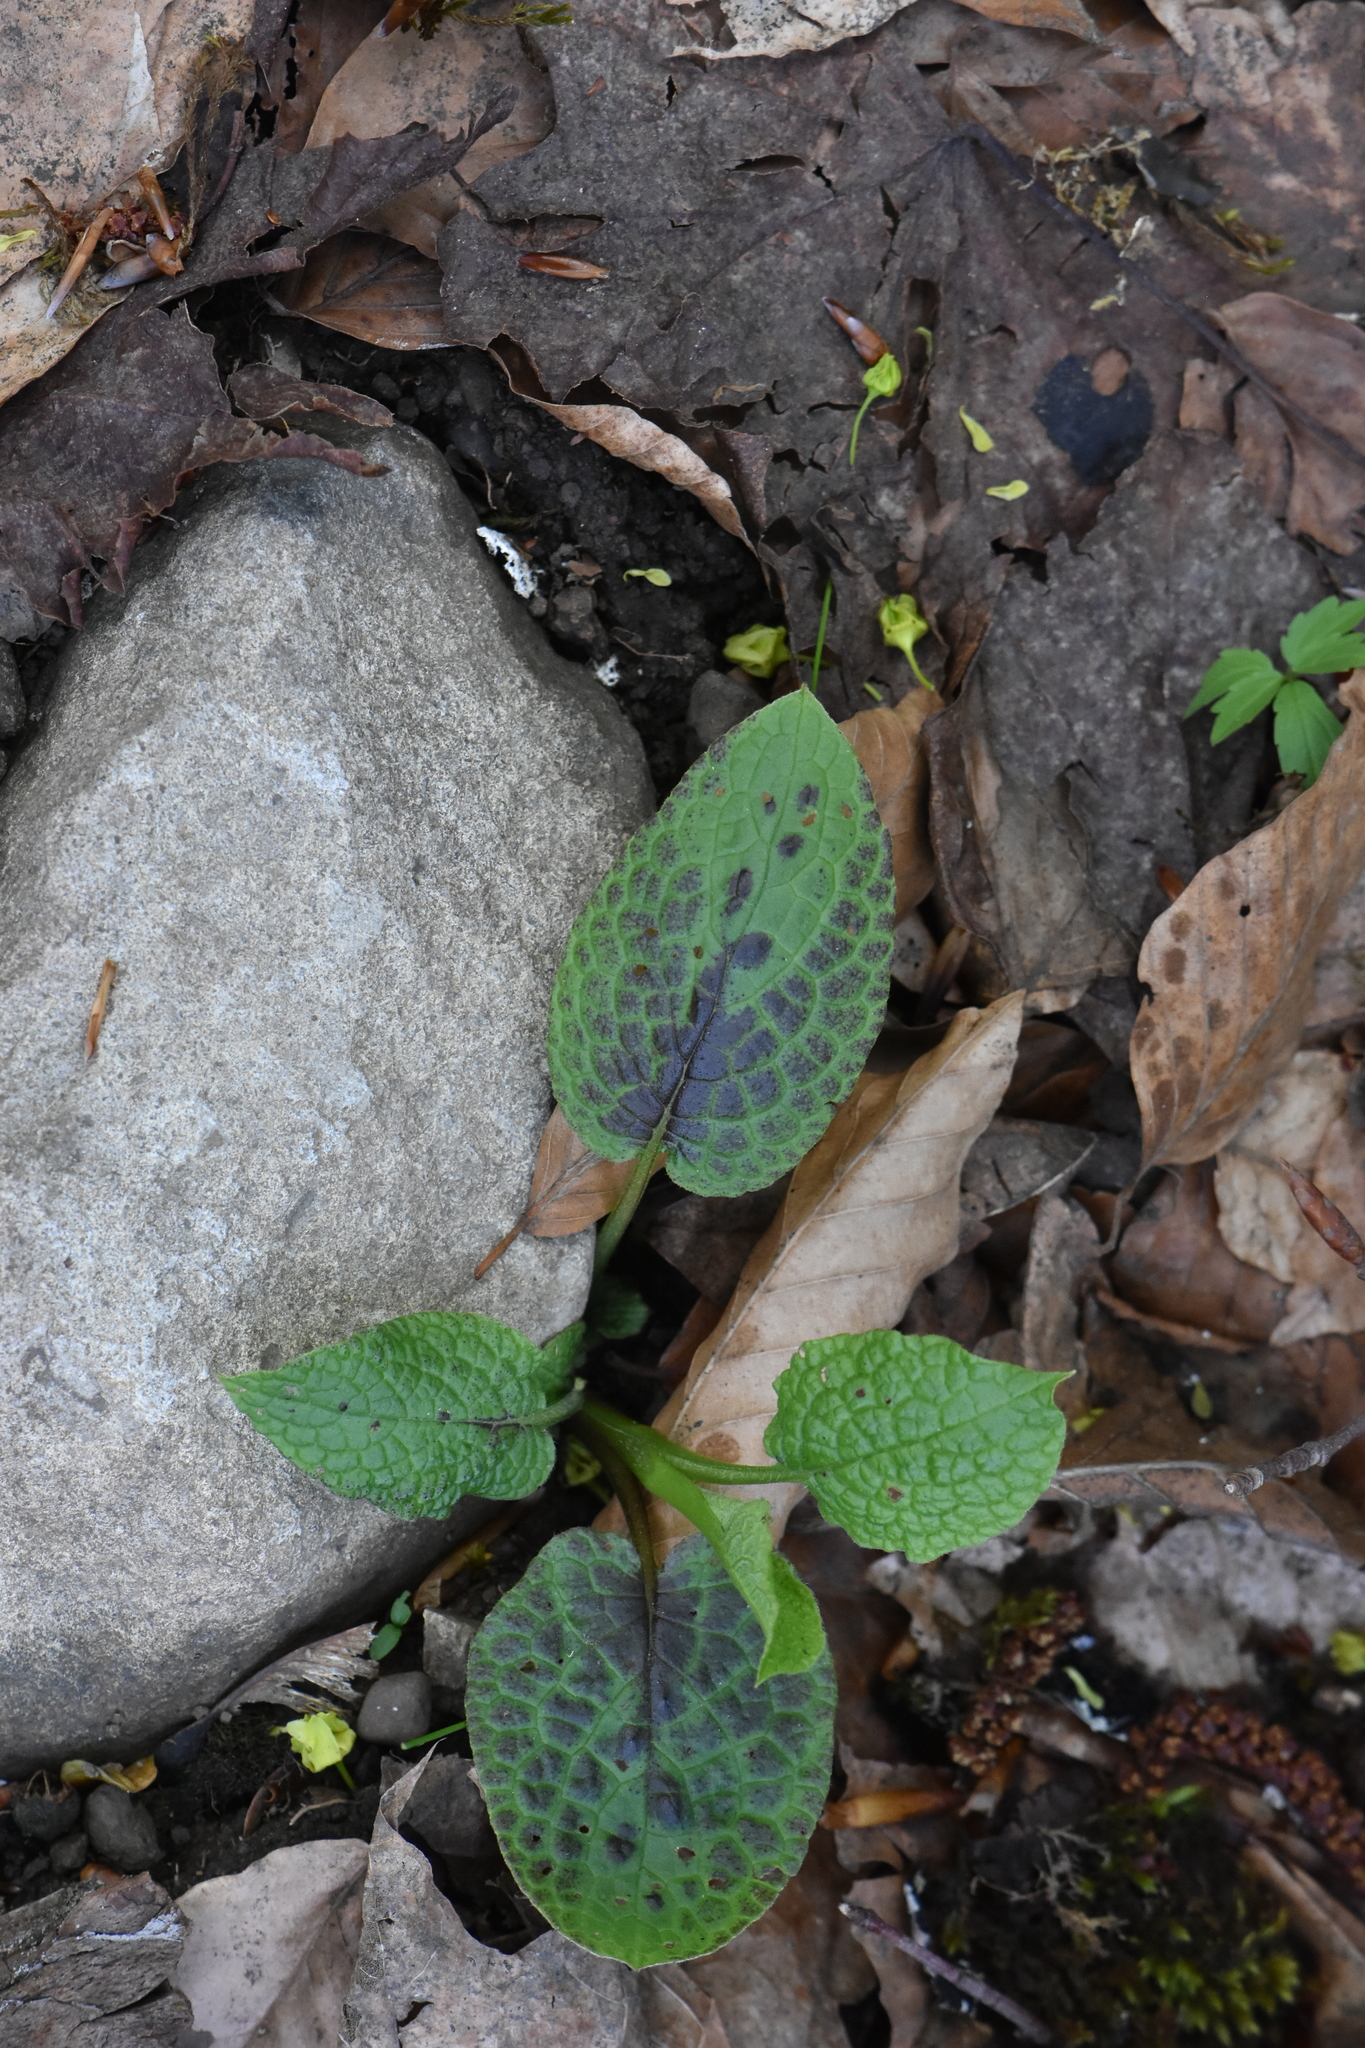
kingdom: Plantae
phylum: Tracheophyta
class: Magnoliopsida
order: Boraginales
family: Boraginaceae
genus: Symphytum
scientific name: Symphytum grandiflorum
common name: Creeping comfrey
